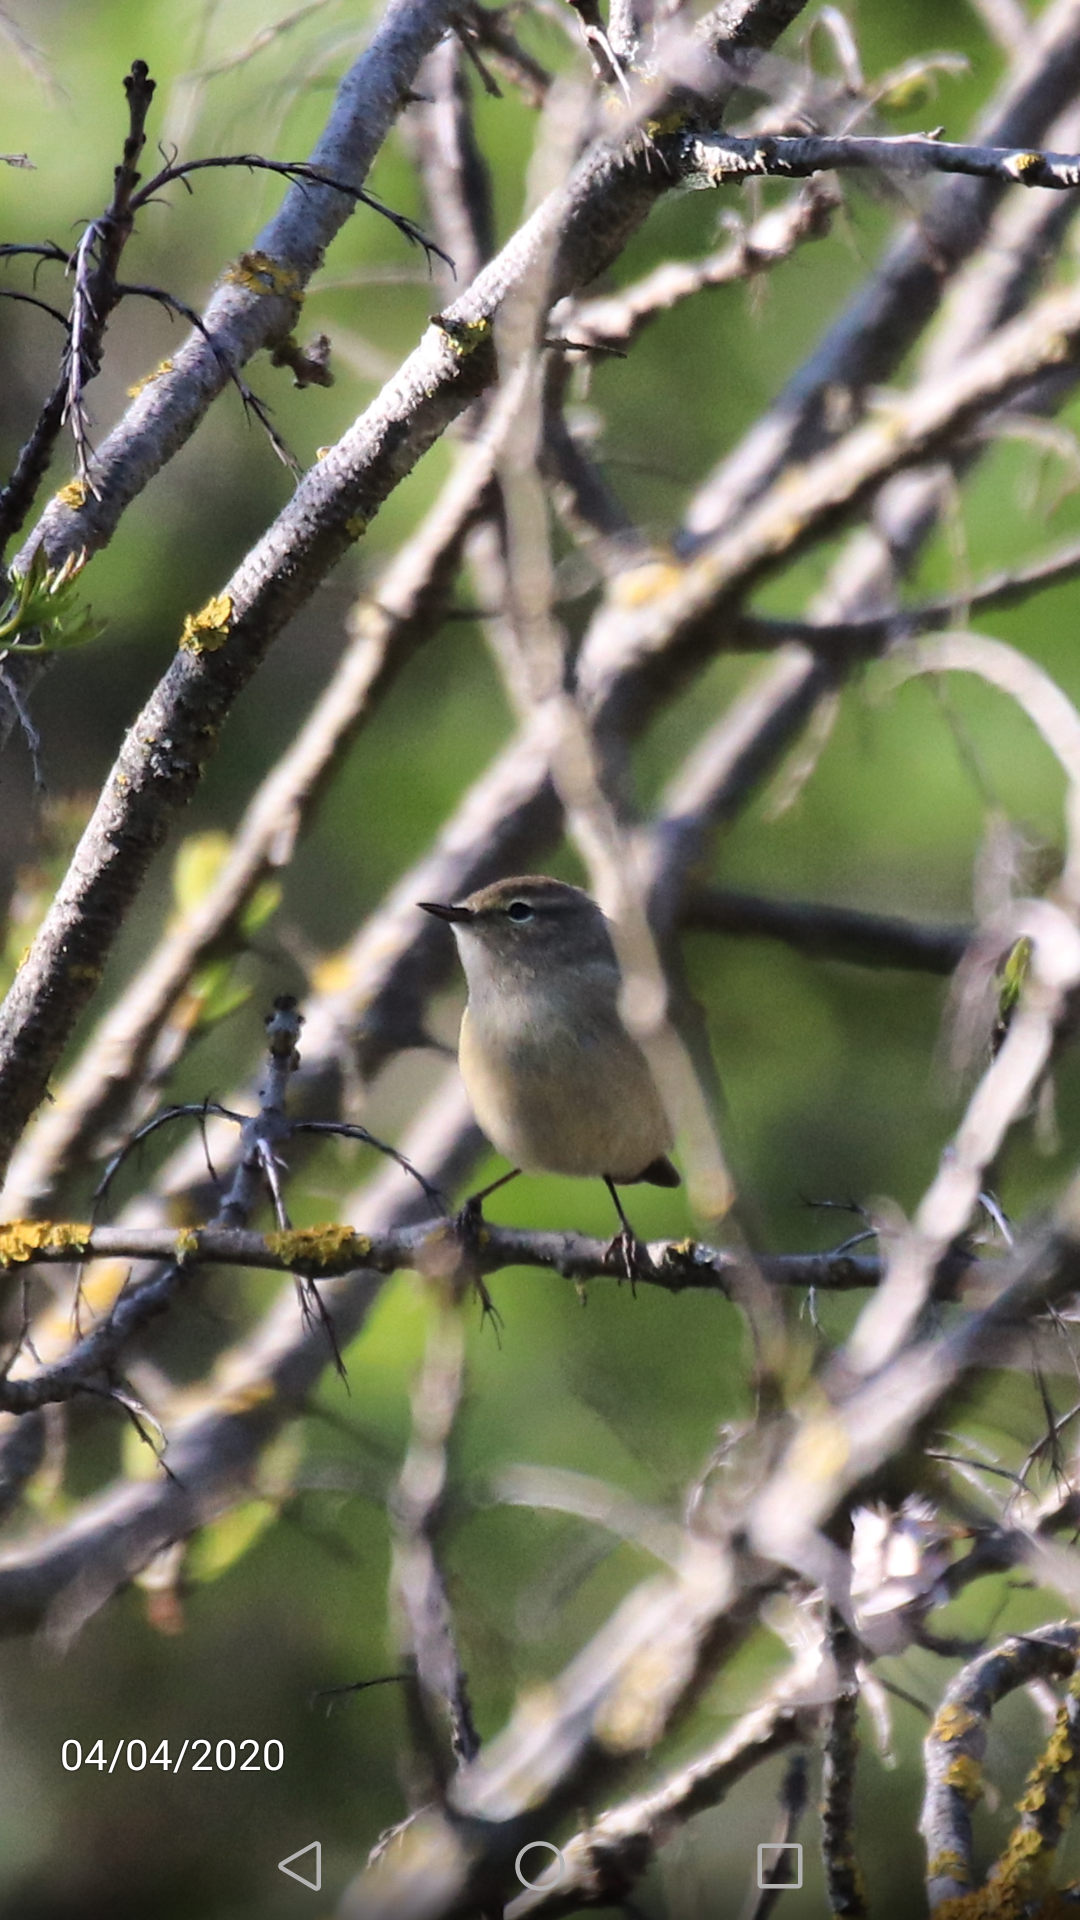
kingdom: Animalia
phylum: Chordata
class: Aves
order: Passeriformes
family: Phylloscopidae
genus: Phylloscopus
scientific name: Phylloscopus collybita
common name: Common chiffchaff
